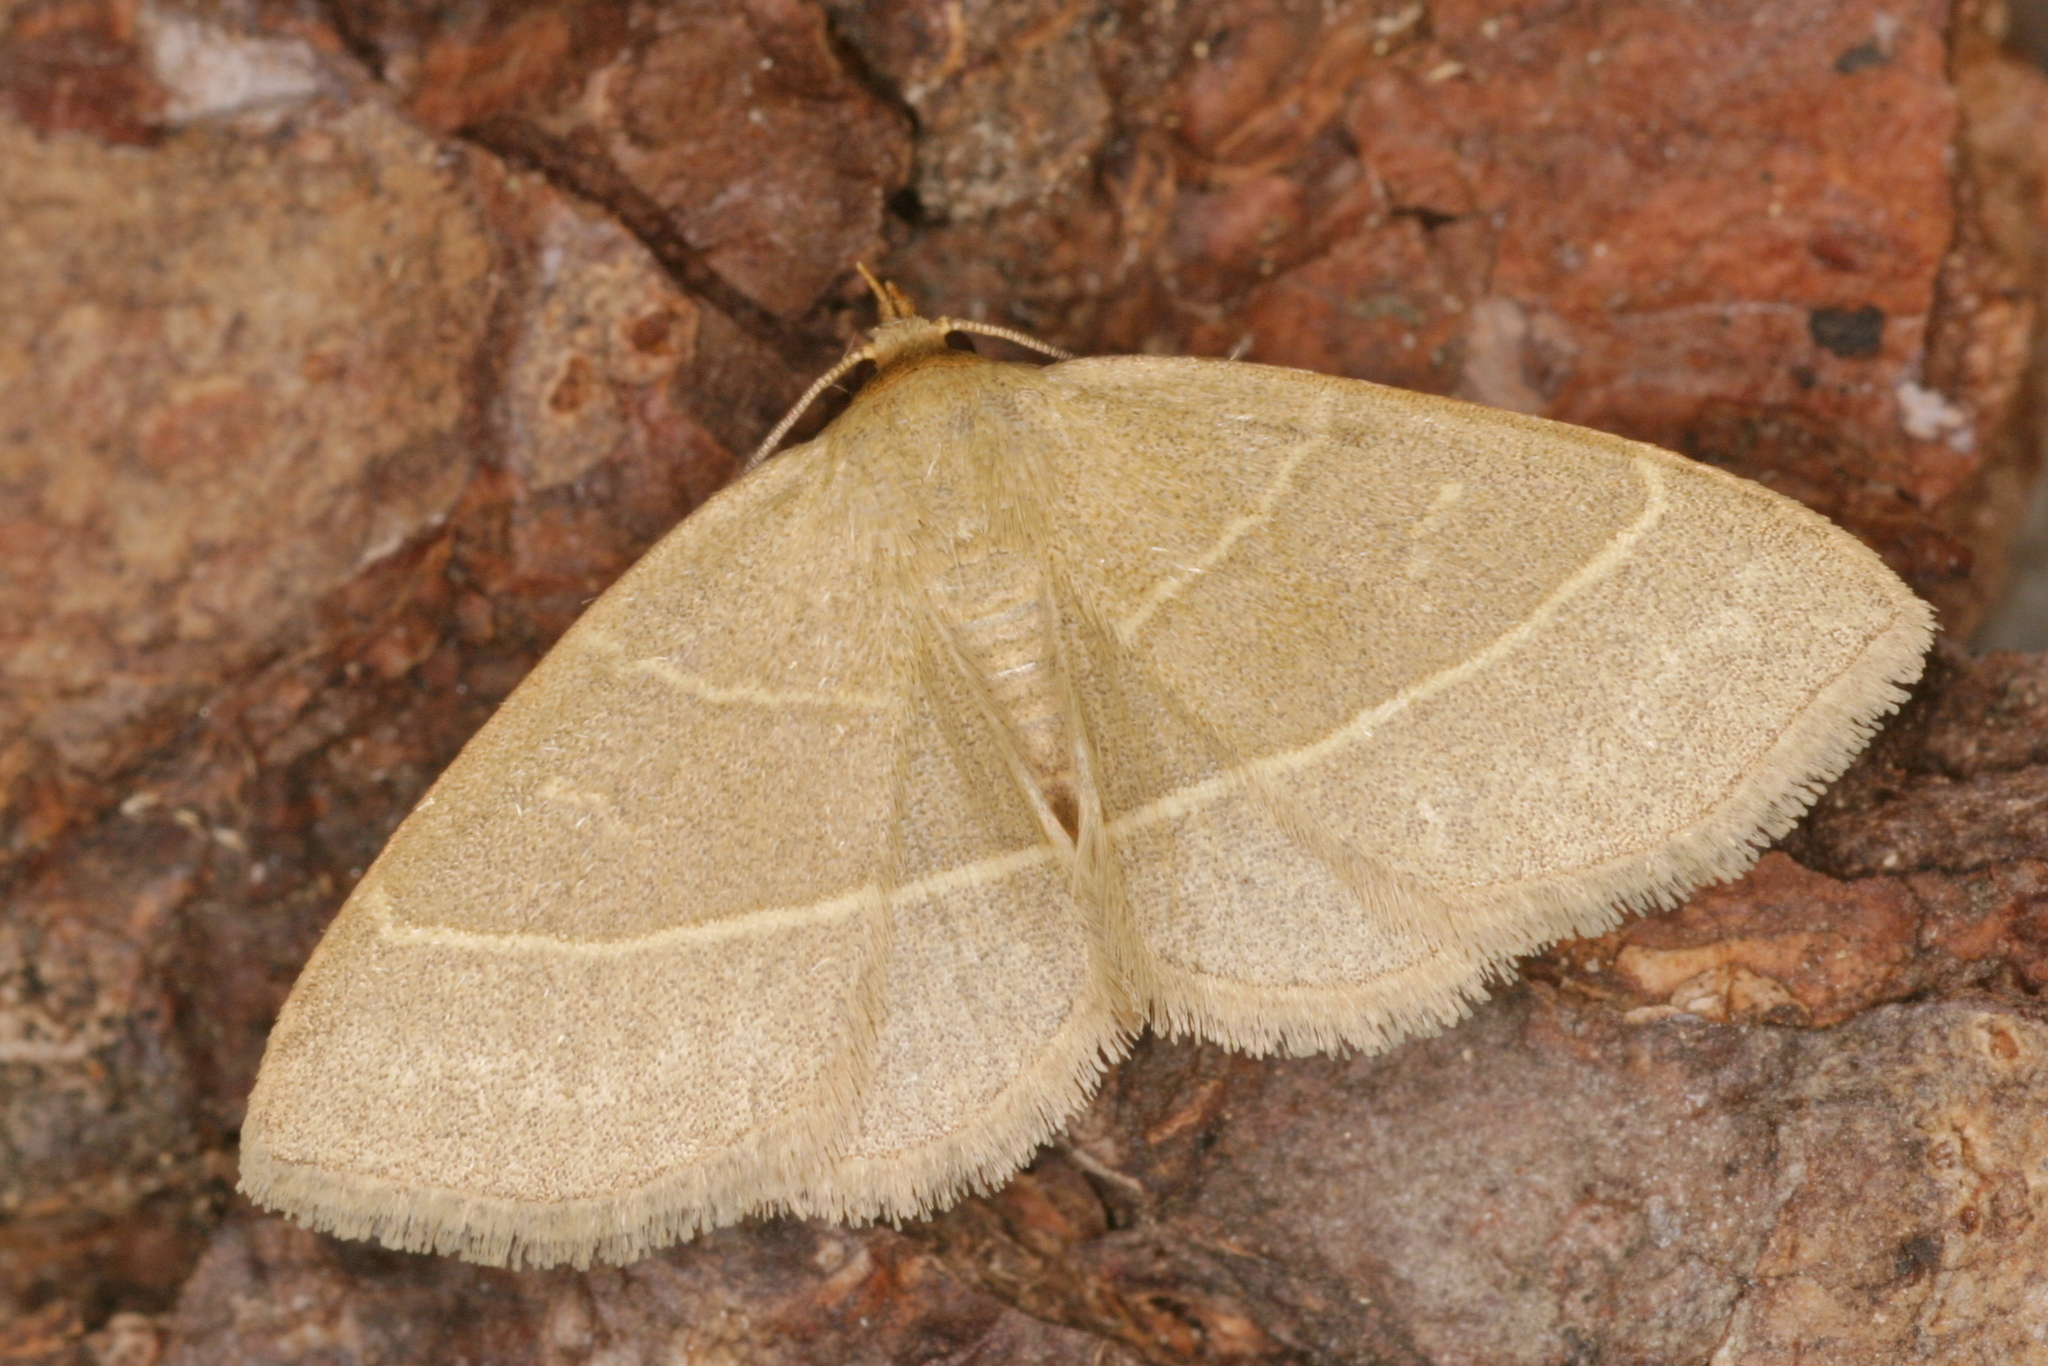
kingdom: Animalia
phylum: Arthropoda
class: Insecta
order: Lepidoptera
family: Erebidae
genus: Trisateles
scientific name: Trisateles emortualis
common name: Olive crescent
